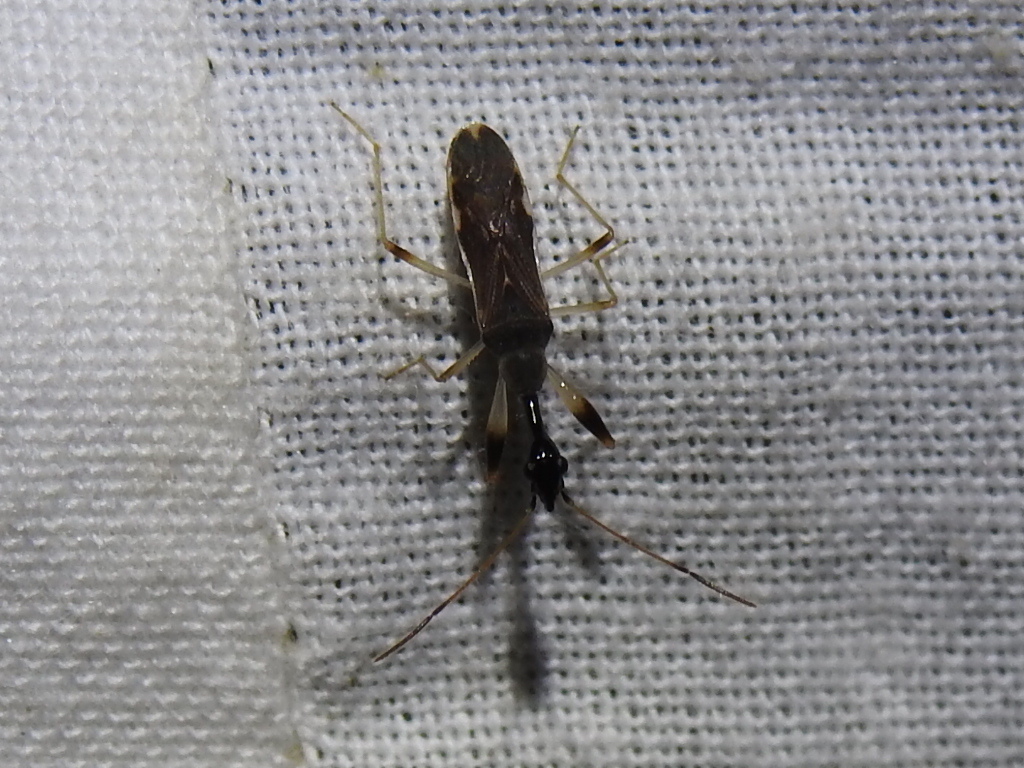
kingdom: Animalia
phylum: Arthropoda
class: Insecta
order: Hemiptera
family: Rhyparochromidae
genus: Myodocha
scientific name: Myodocha serripes
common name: Long-necked seed bug
